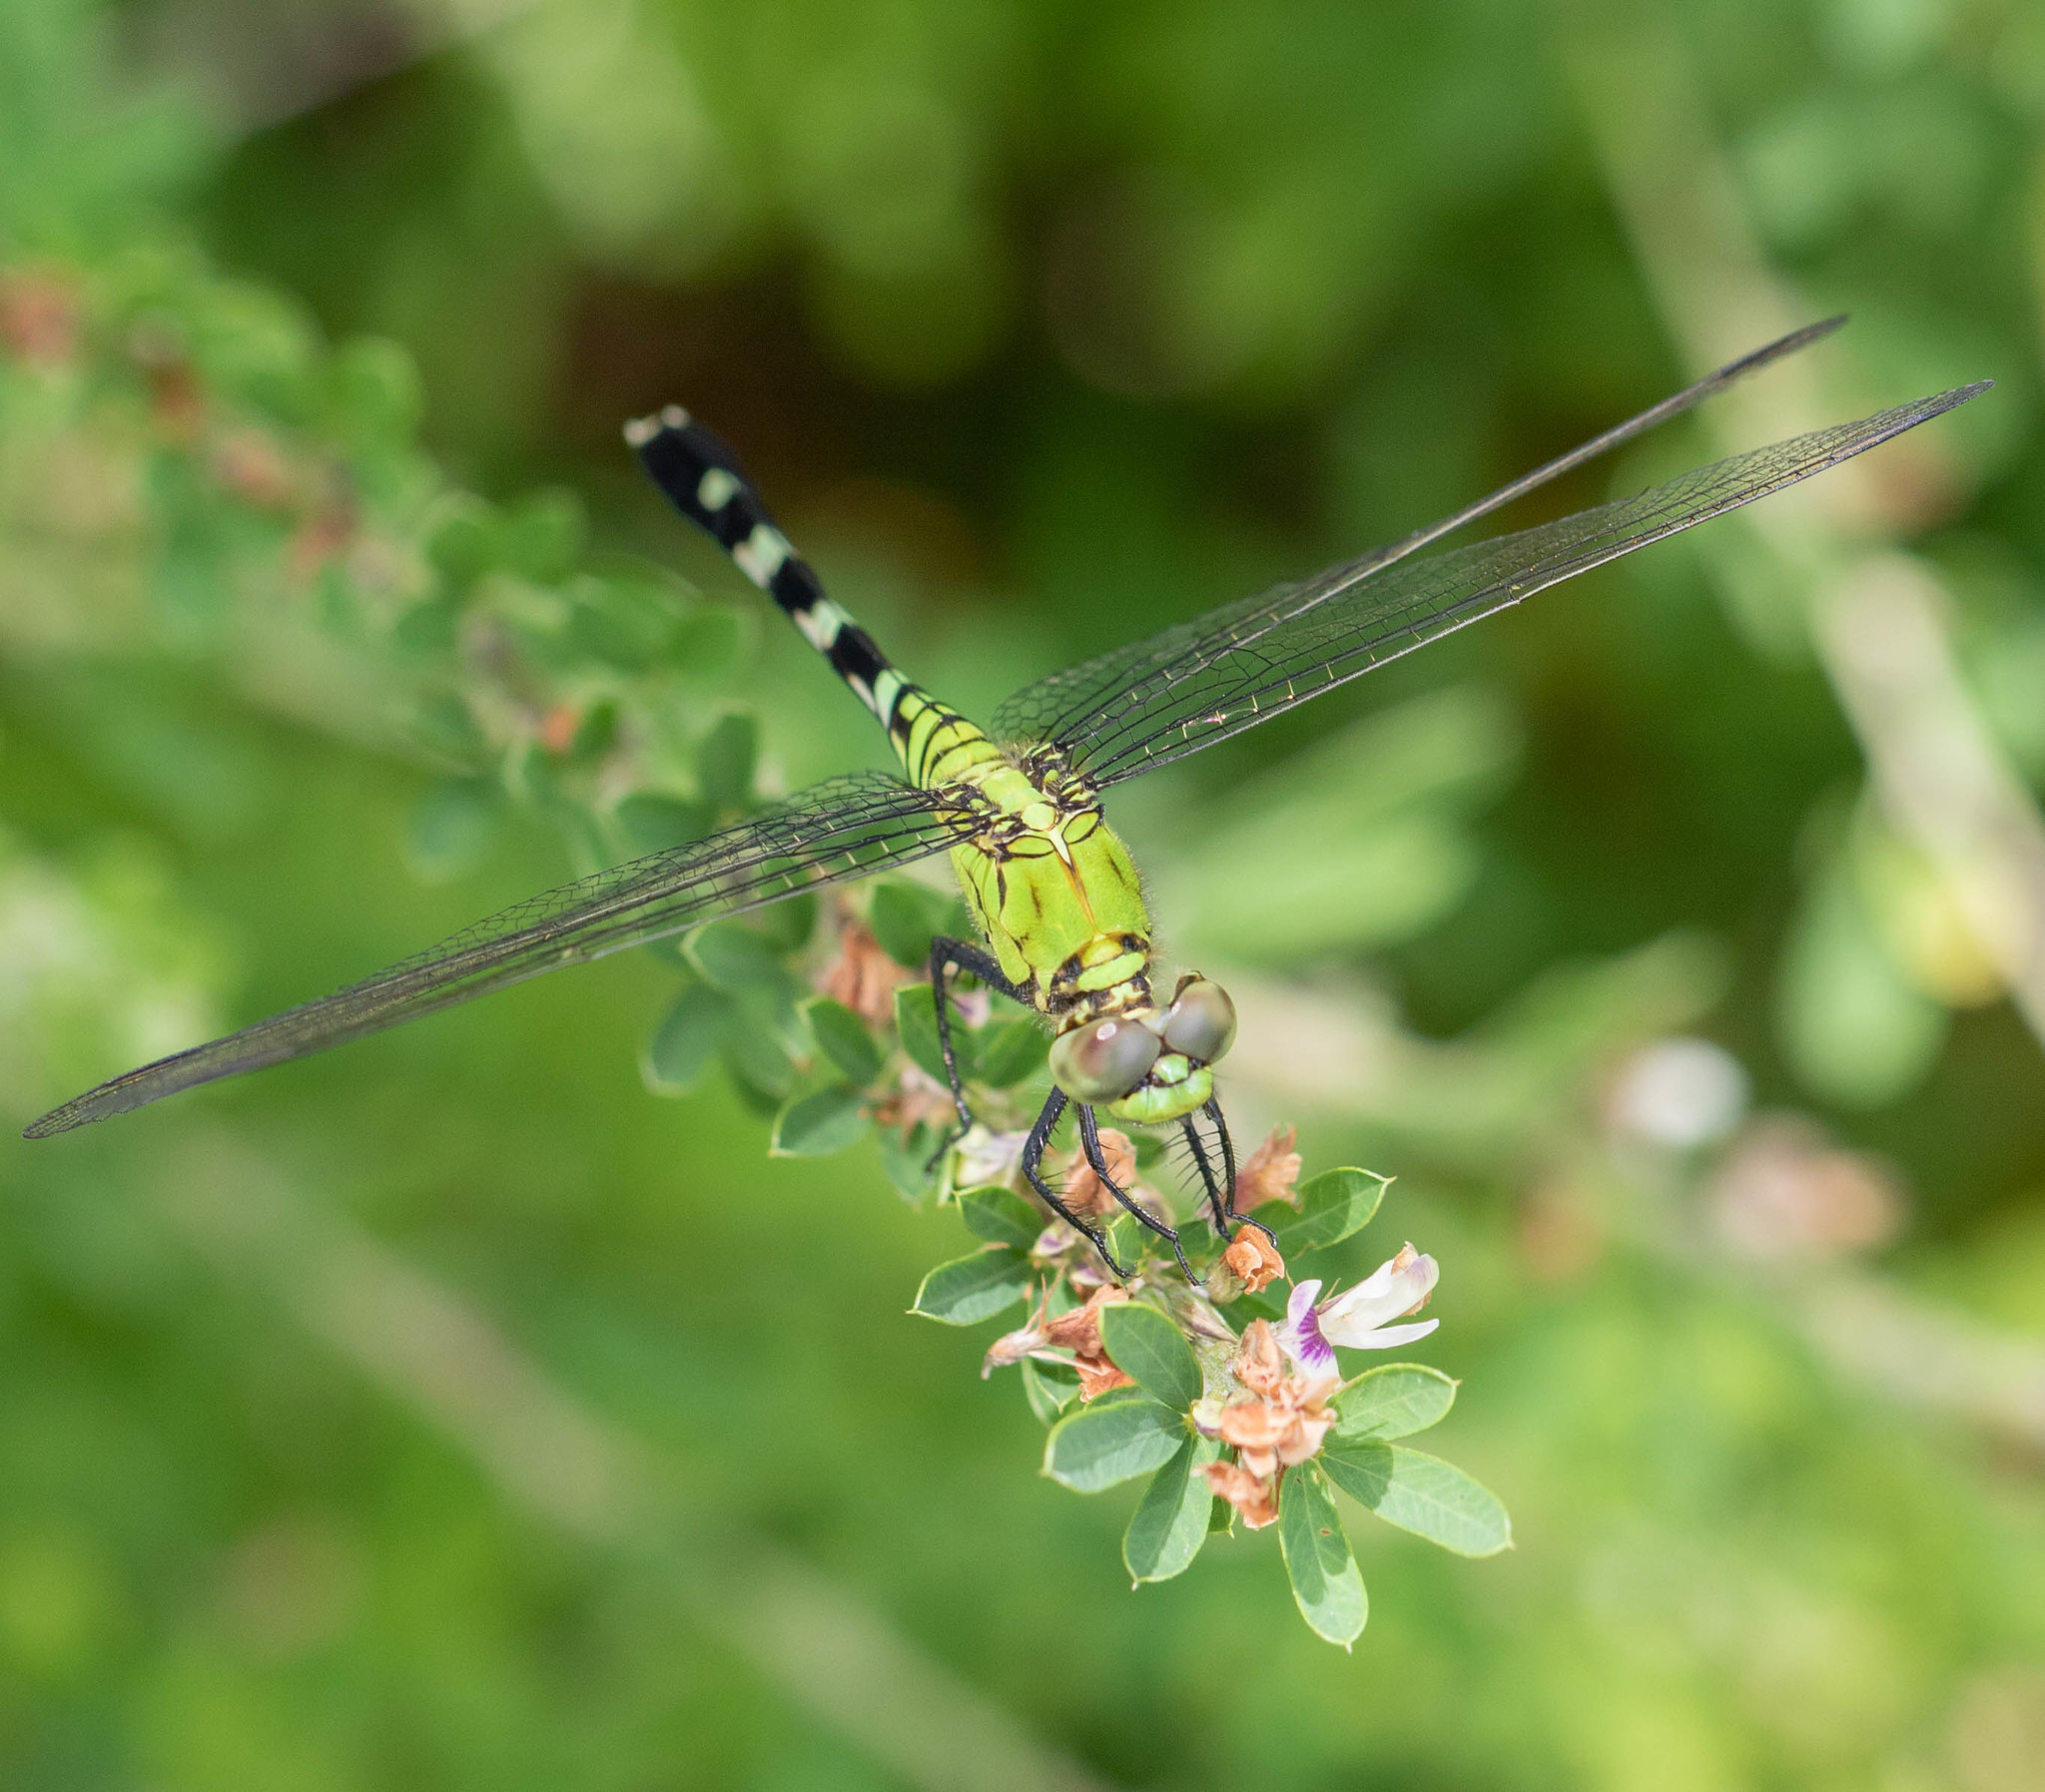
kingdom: Animalia
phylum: Arthropoda
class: Insecta
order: Odonata
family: Libellulidae
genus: Erythemis
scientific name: Erythemis simplicicollis
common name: Eastern pondhawk
